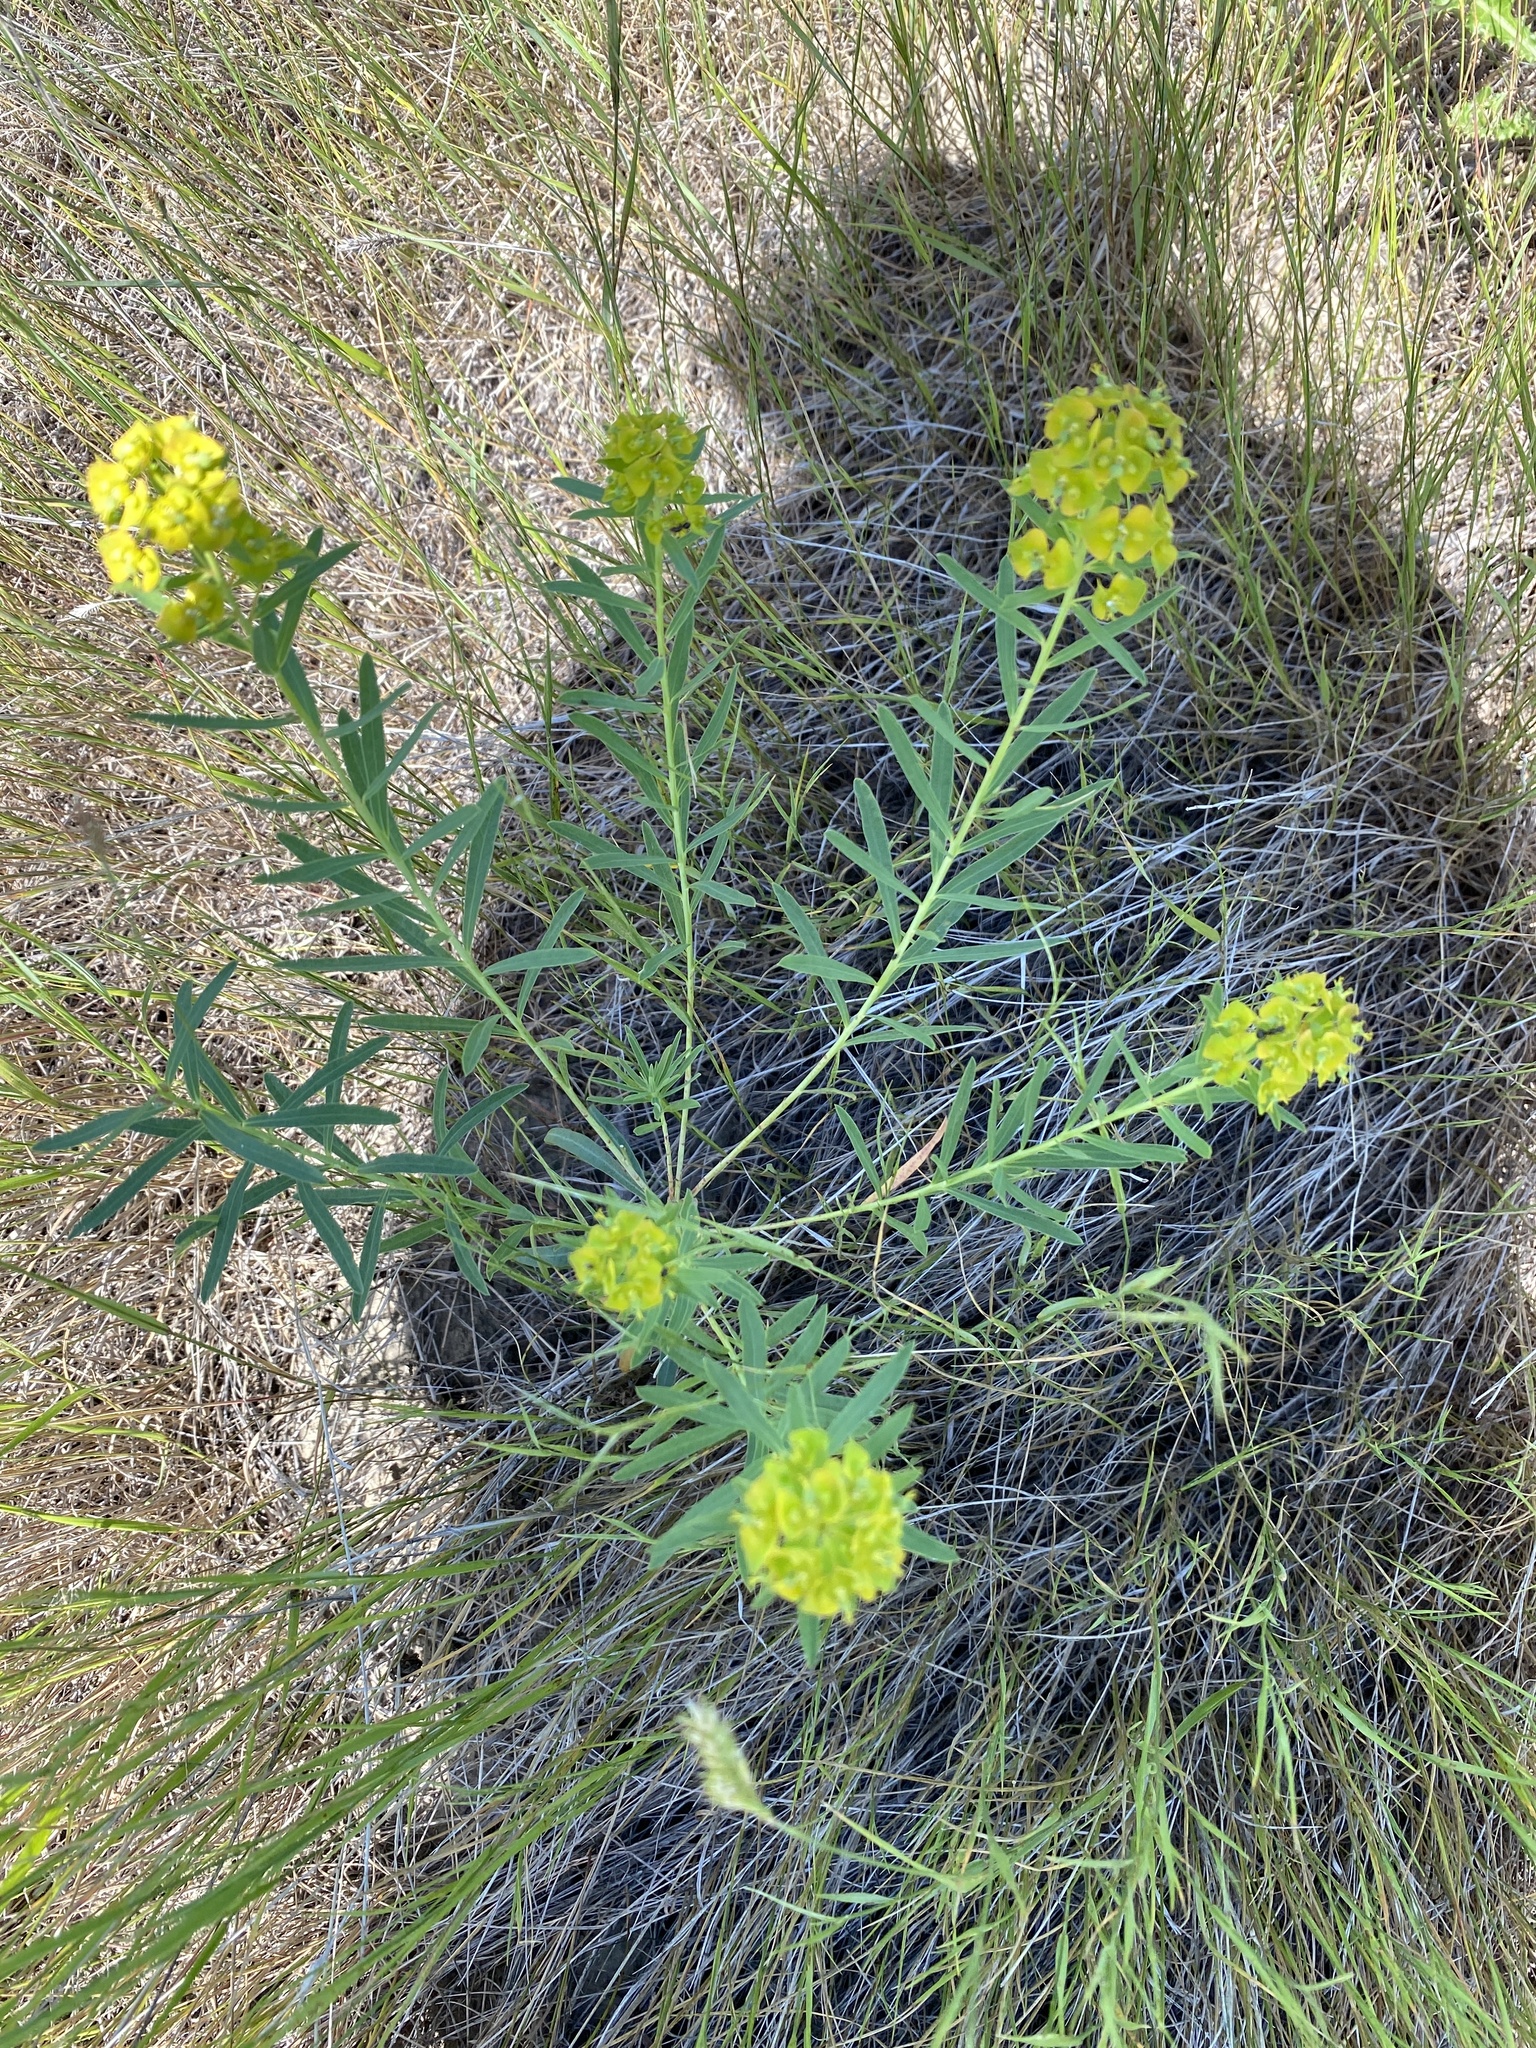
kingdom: Plantae
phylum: Tracheophyta
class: Magnoliopsida
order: Malpighiales
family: Euphorbiaceae
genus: Euphorbia
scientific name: Euphorbia virgata
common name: Leafy spurge
